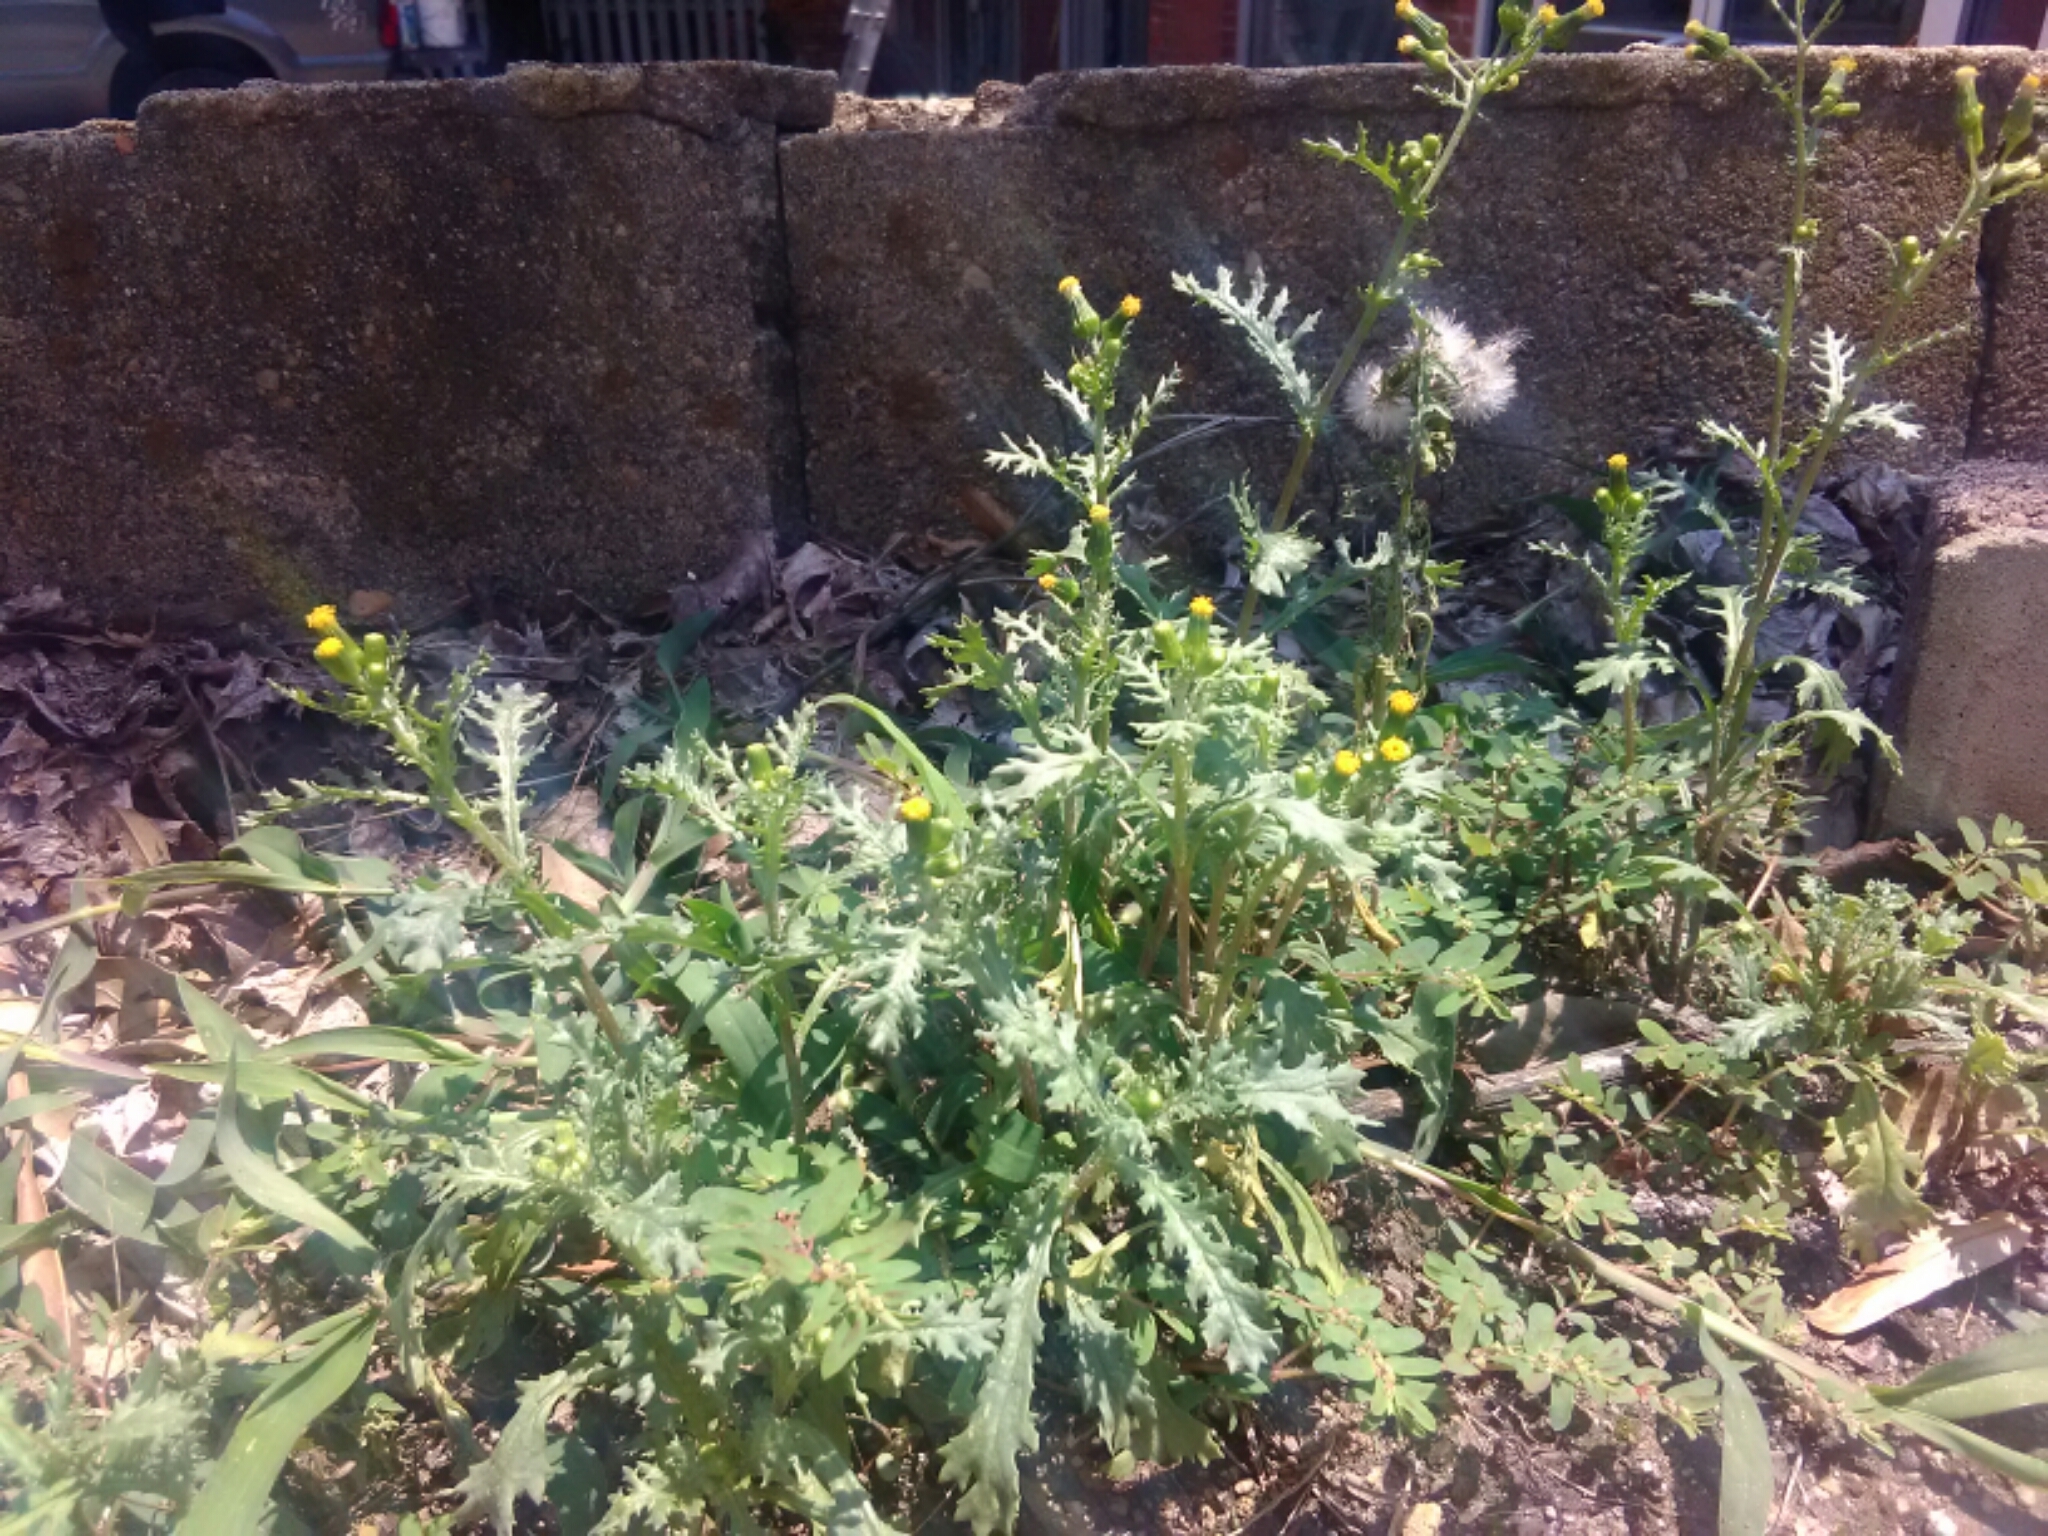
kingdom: Plantae
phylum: Tracheophyta
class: Magnoliopsida
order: Asterales
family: Asteraceae
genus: Senecio
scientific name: Senecio vulgaris
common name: Old-man-in-the-spring
